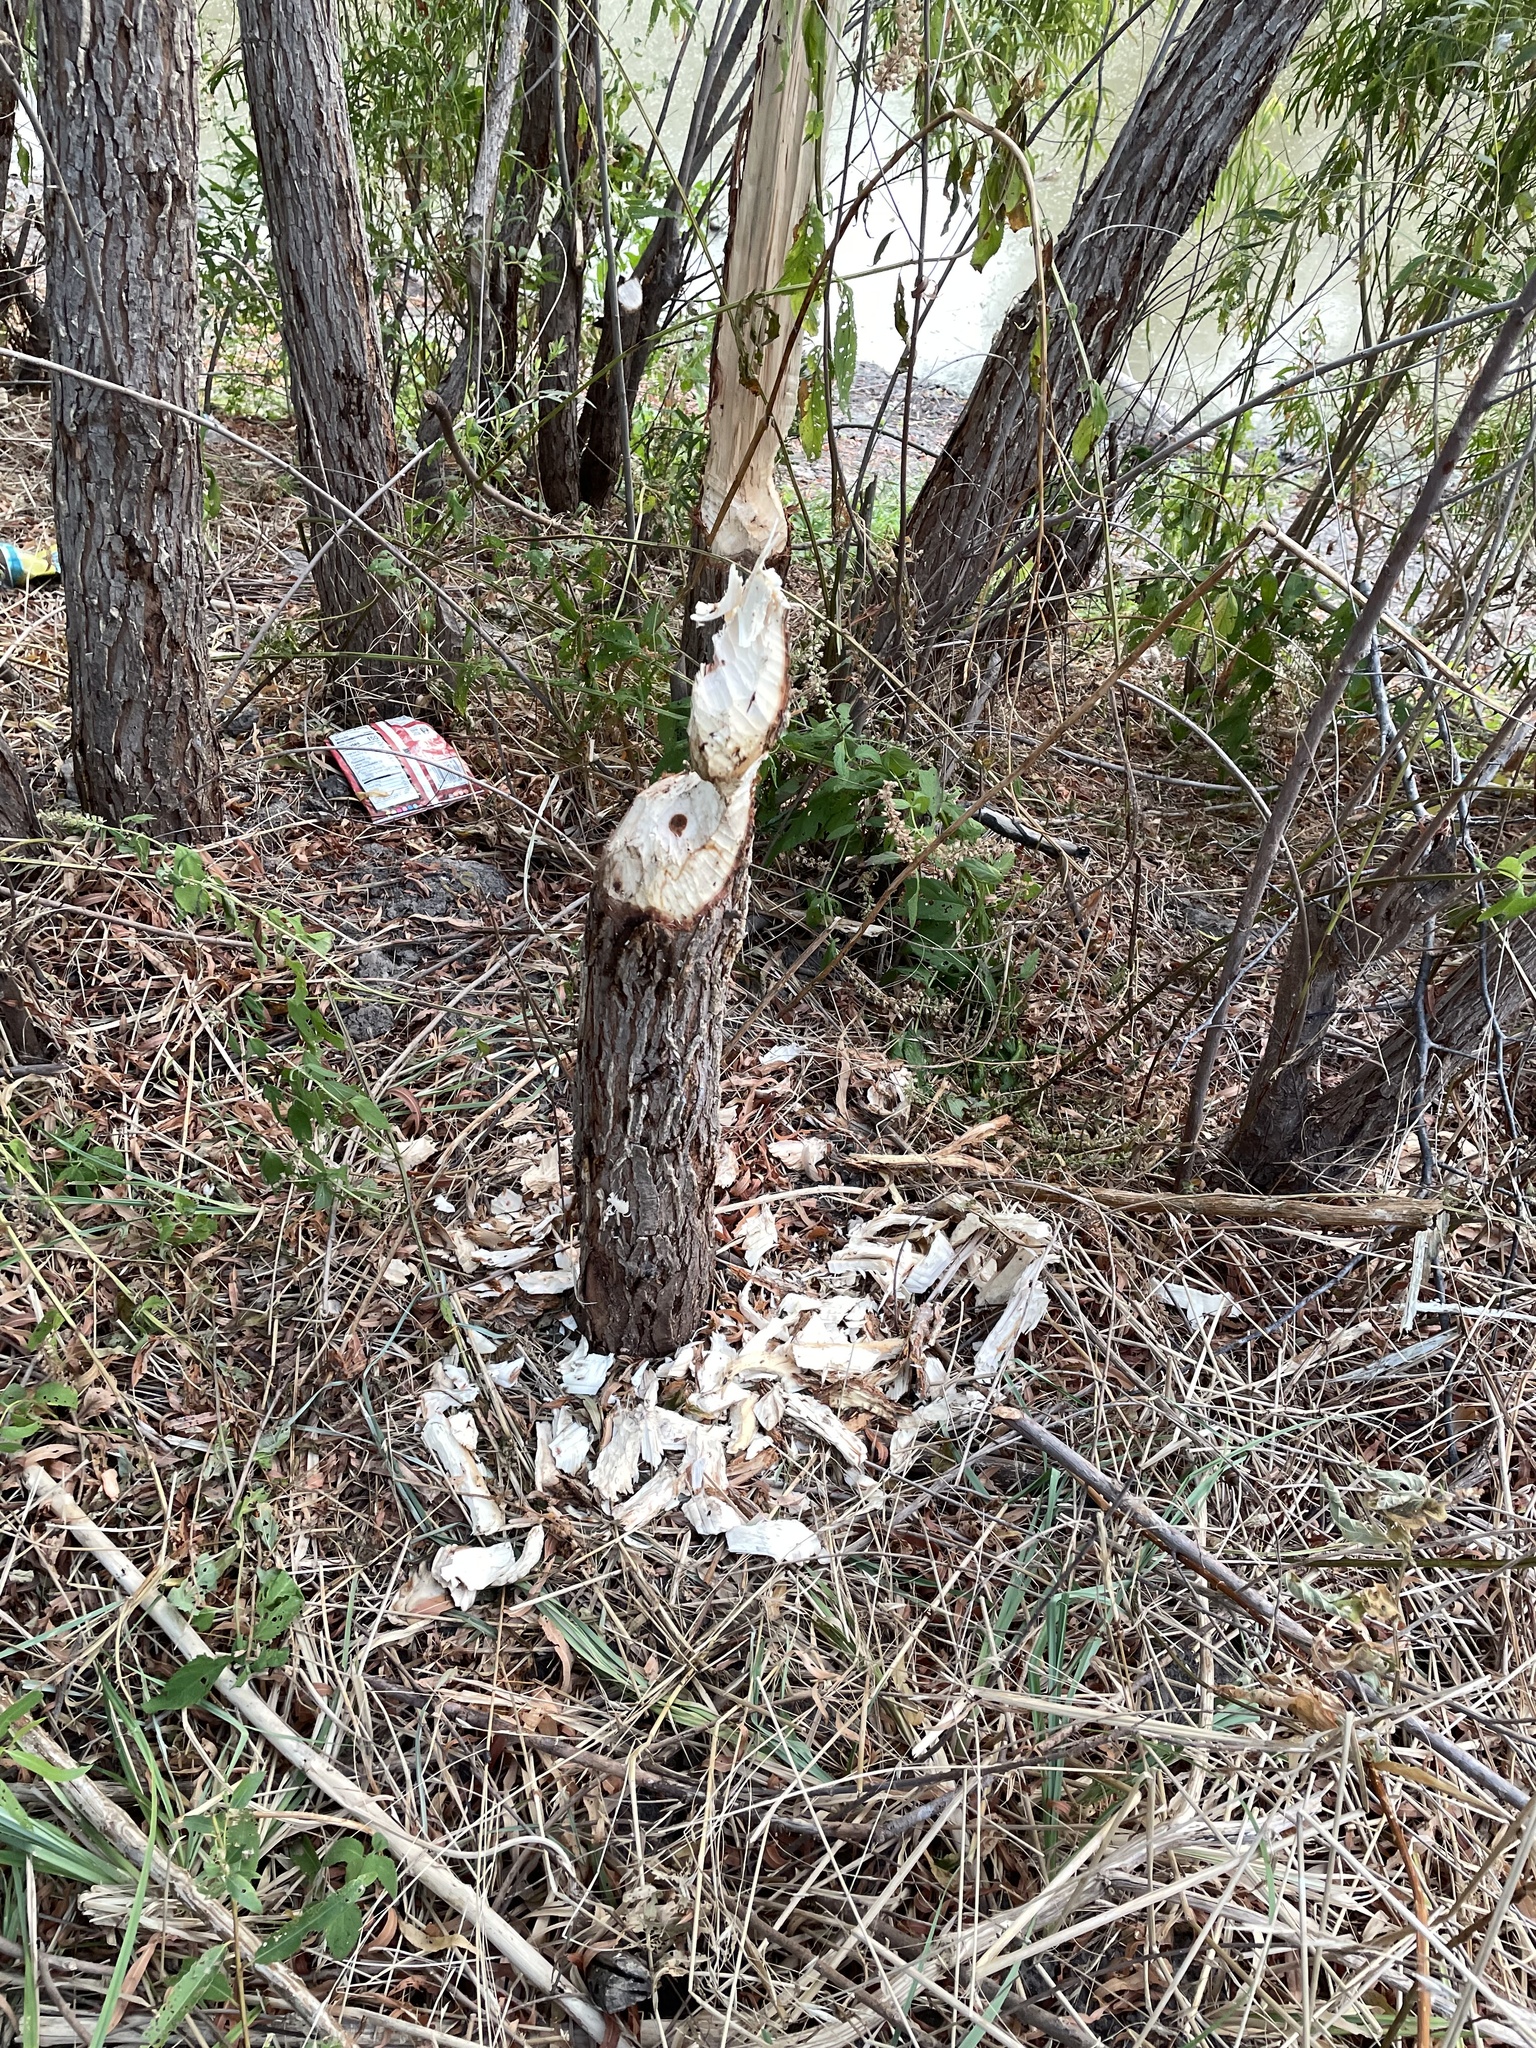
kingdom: Animalia
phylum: Chordata
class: Mammalia
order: Rodentia
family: Castoridae
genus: Castor
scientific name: Castor canadensis
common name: American beaver
